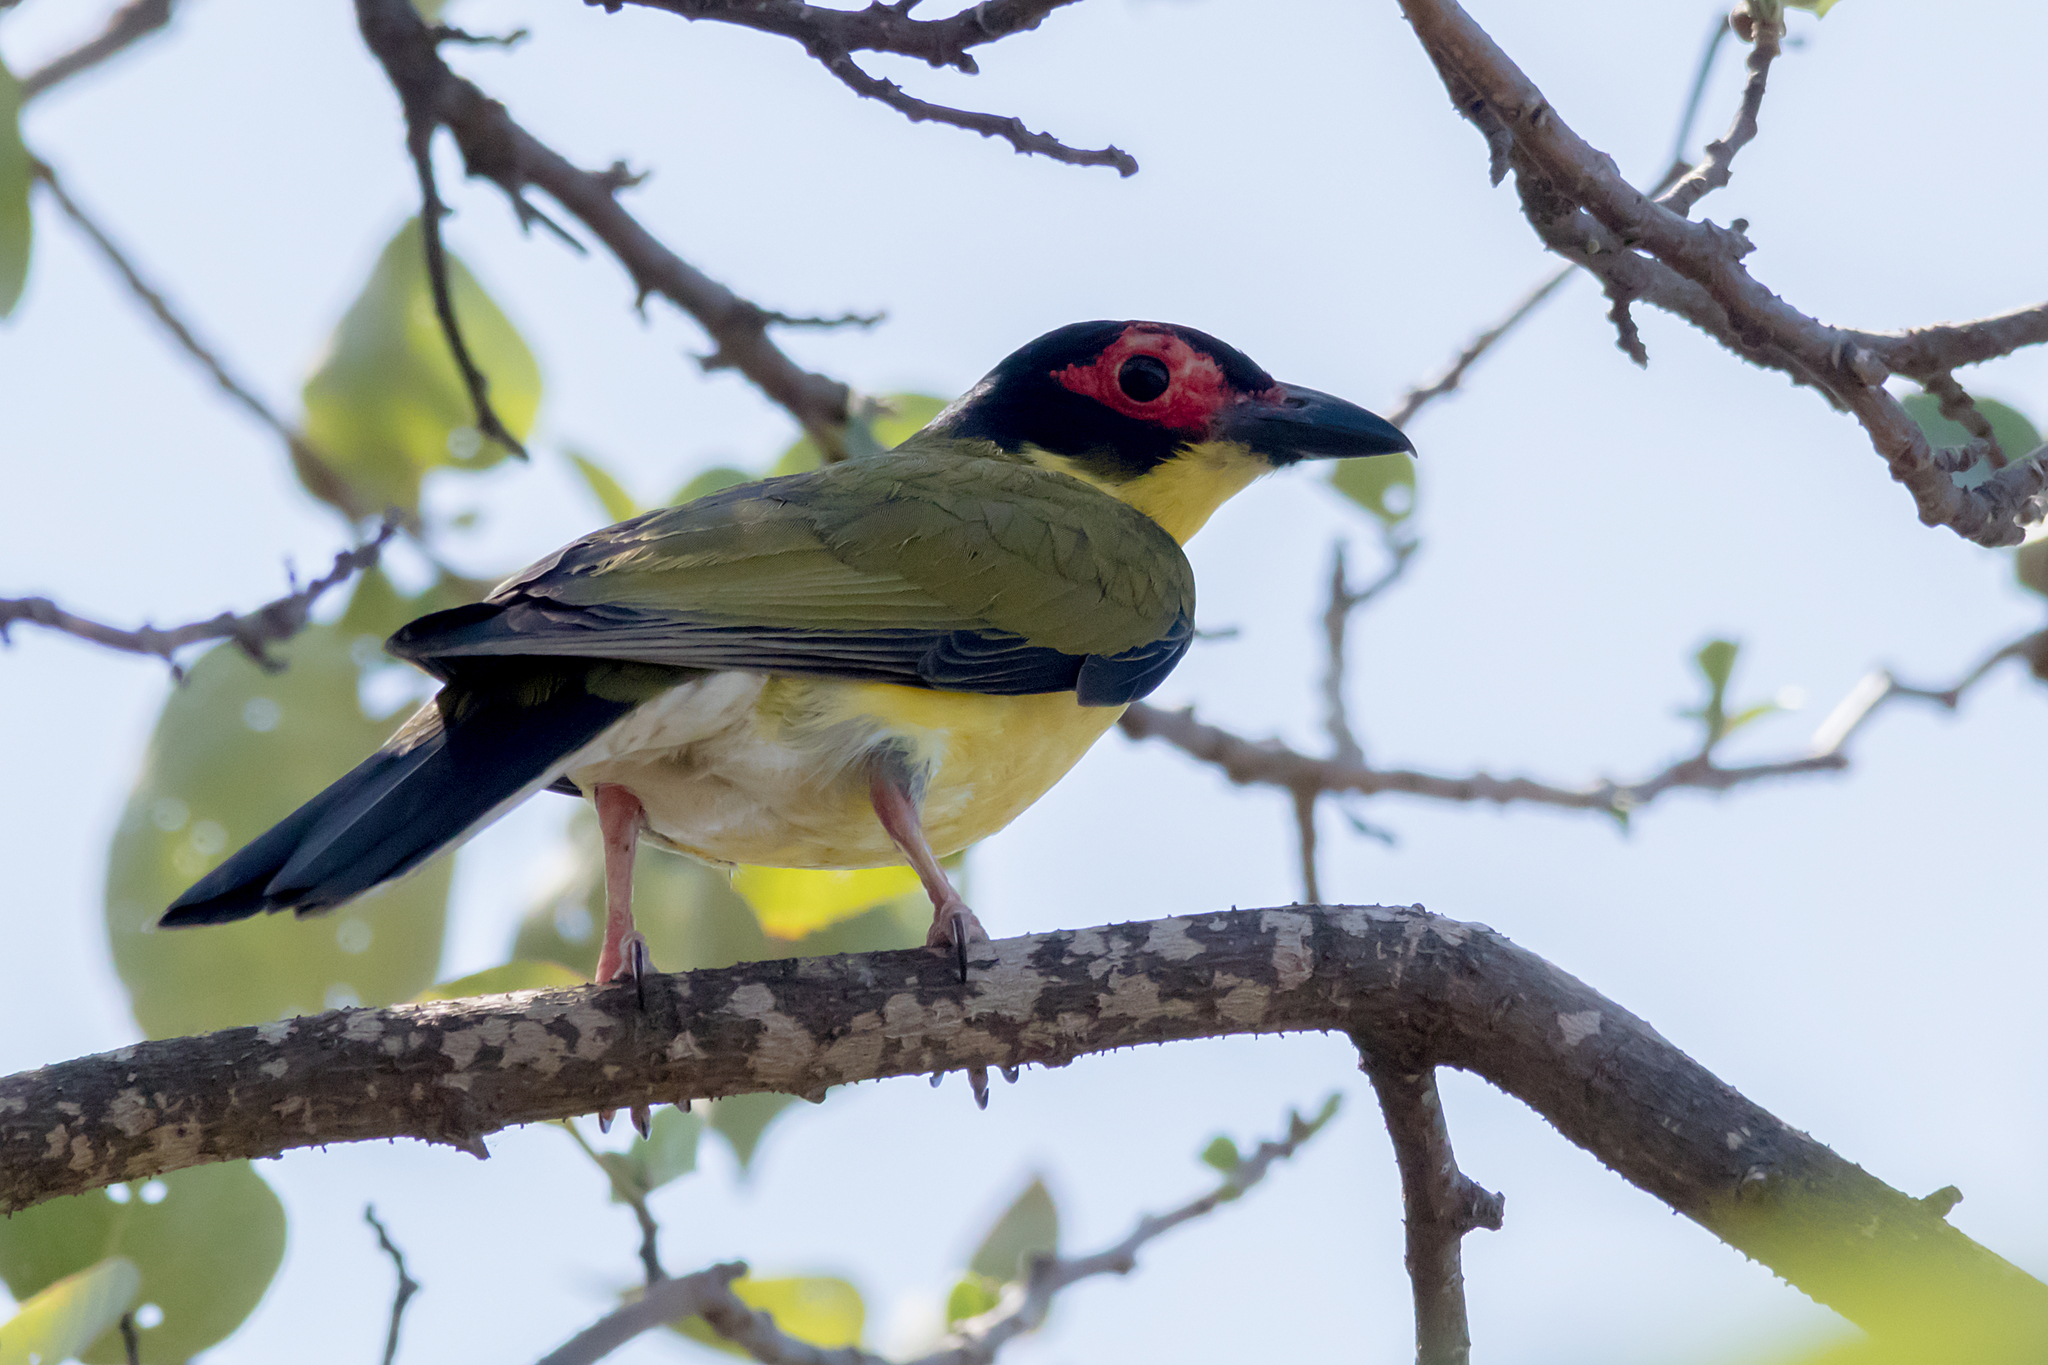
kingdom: Animalia
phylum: Chordata
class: Aves
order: Passeriformes
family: Oriolidae
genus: Sphecotheres
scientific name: Sphecotheres vieilloti
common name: Australasian figbird
